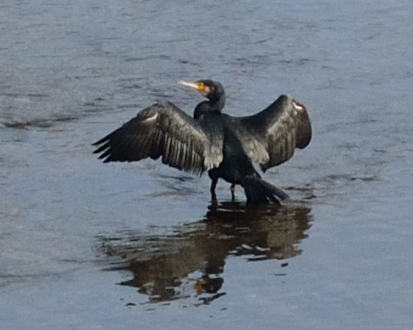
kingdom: Animalia
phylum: Chordata
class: Aves
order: Suliformes
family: Phalacrocoracidae
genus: Phalacrocorax
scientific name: Phalacrocorax carbo
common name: Great cormorant
